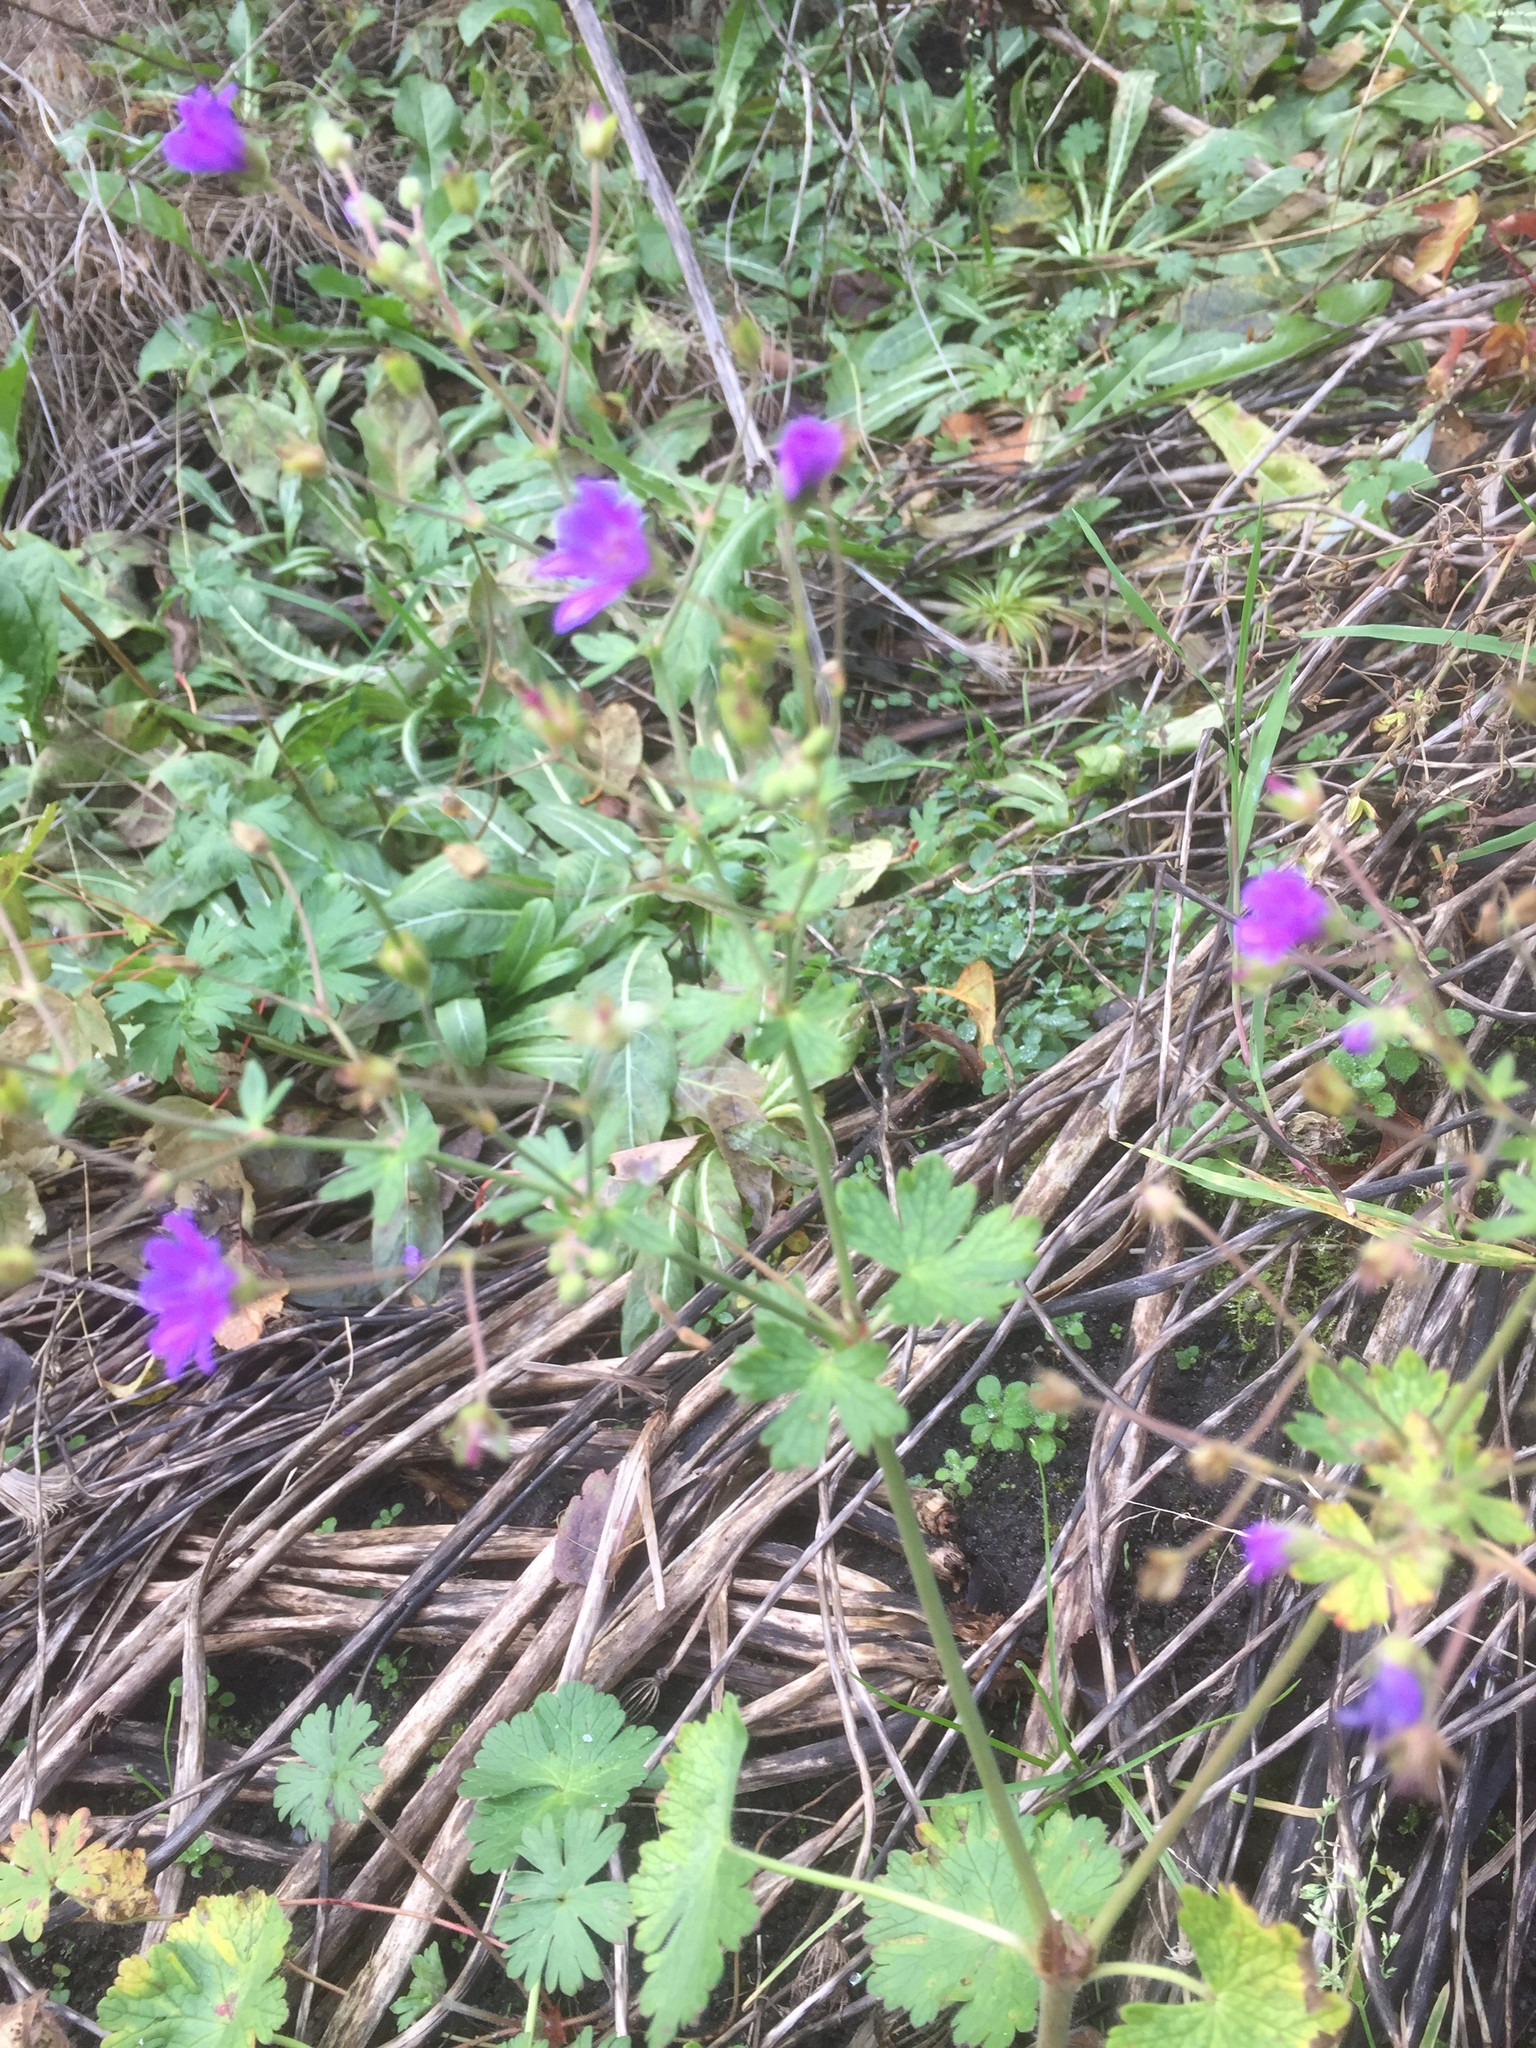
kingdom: Plantae
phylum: Tracheophyta
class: Magnoliopsida
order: Geraniales
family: Geraniaceae
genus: Geranium
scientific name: Geranium pyrenaicum
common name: Hedgerow crane's-bill
